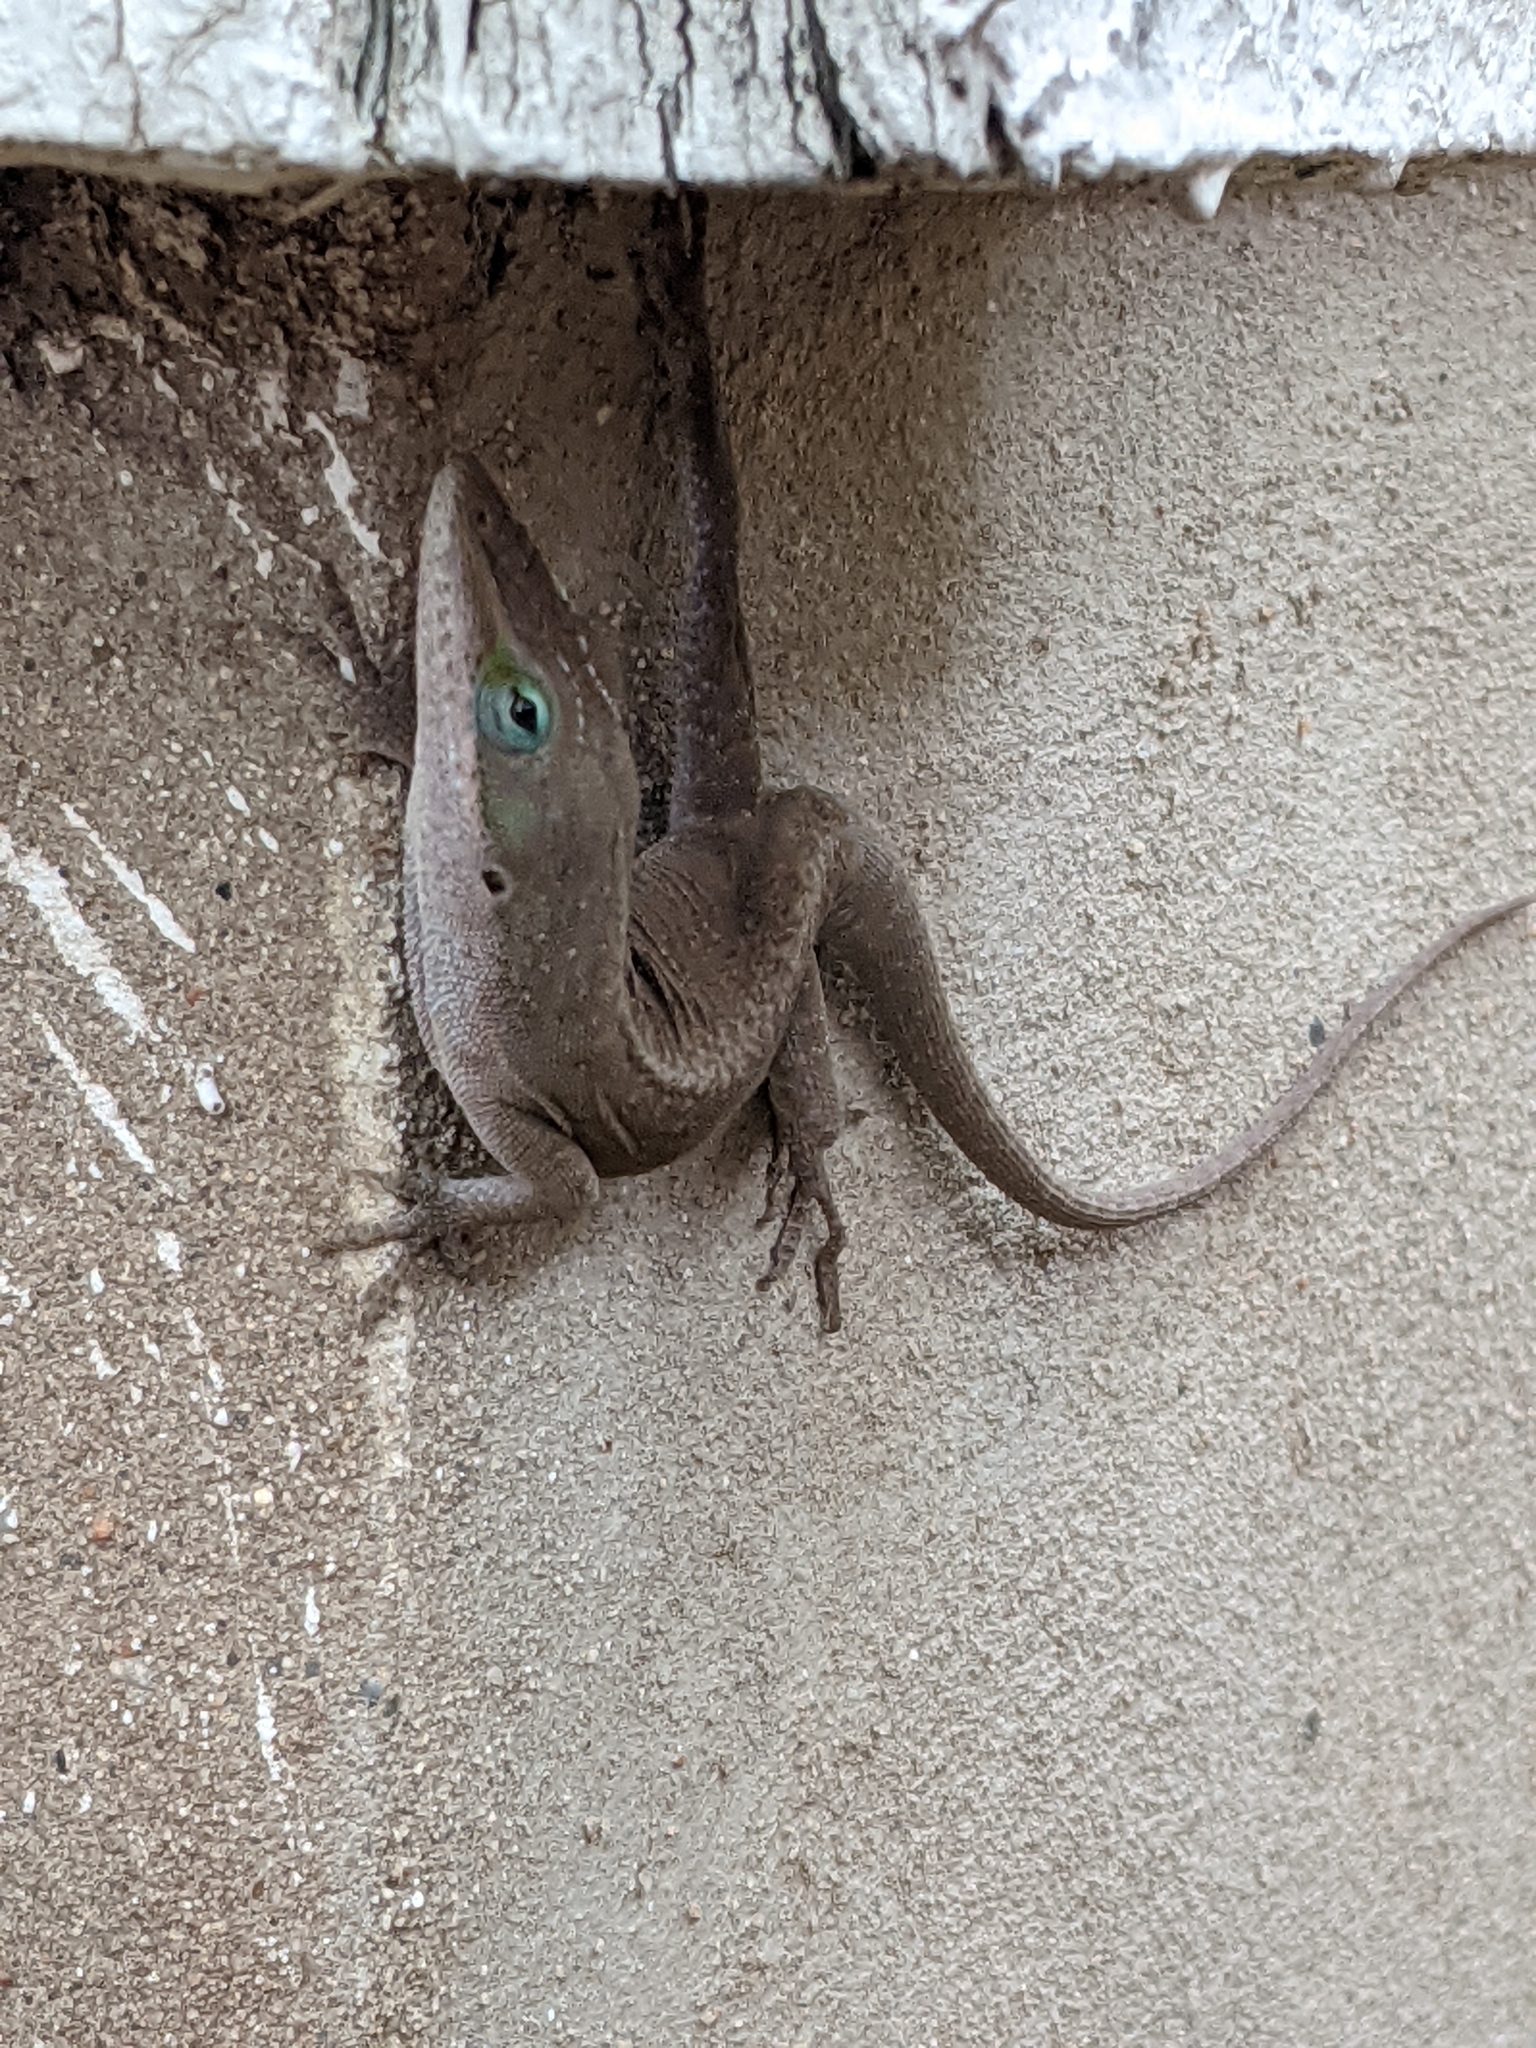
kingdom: Animalia
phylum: Chordata
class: Squamata
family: Dactyloidae
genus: Anolis
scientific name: Anolis carolinensis
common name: Green anole
